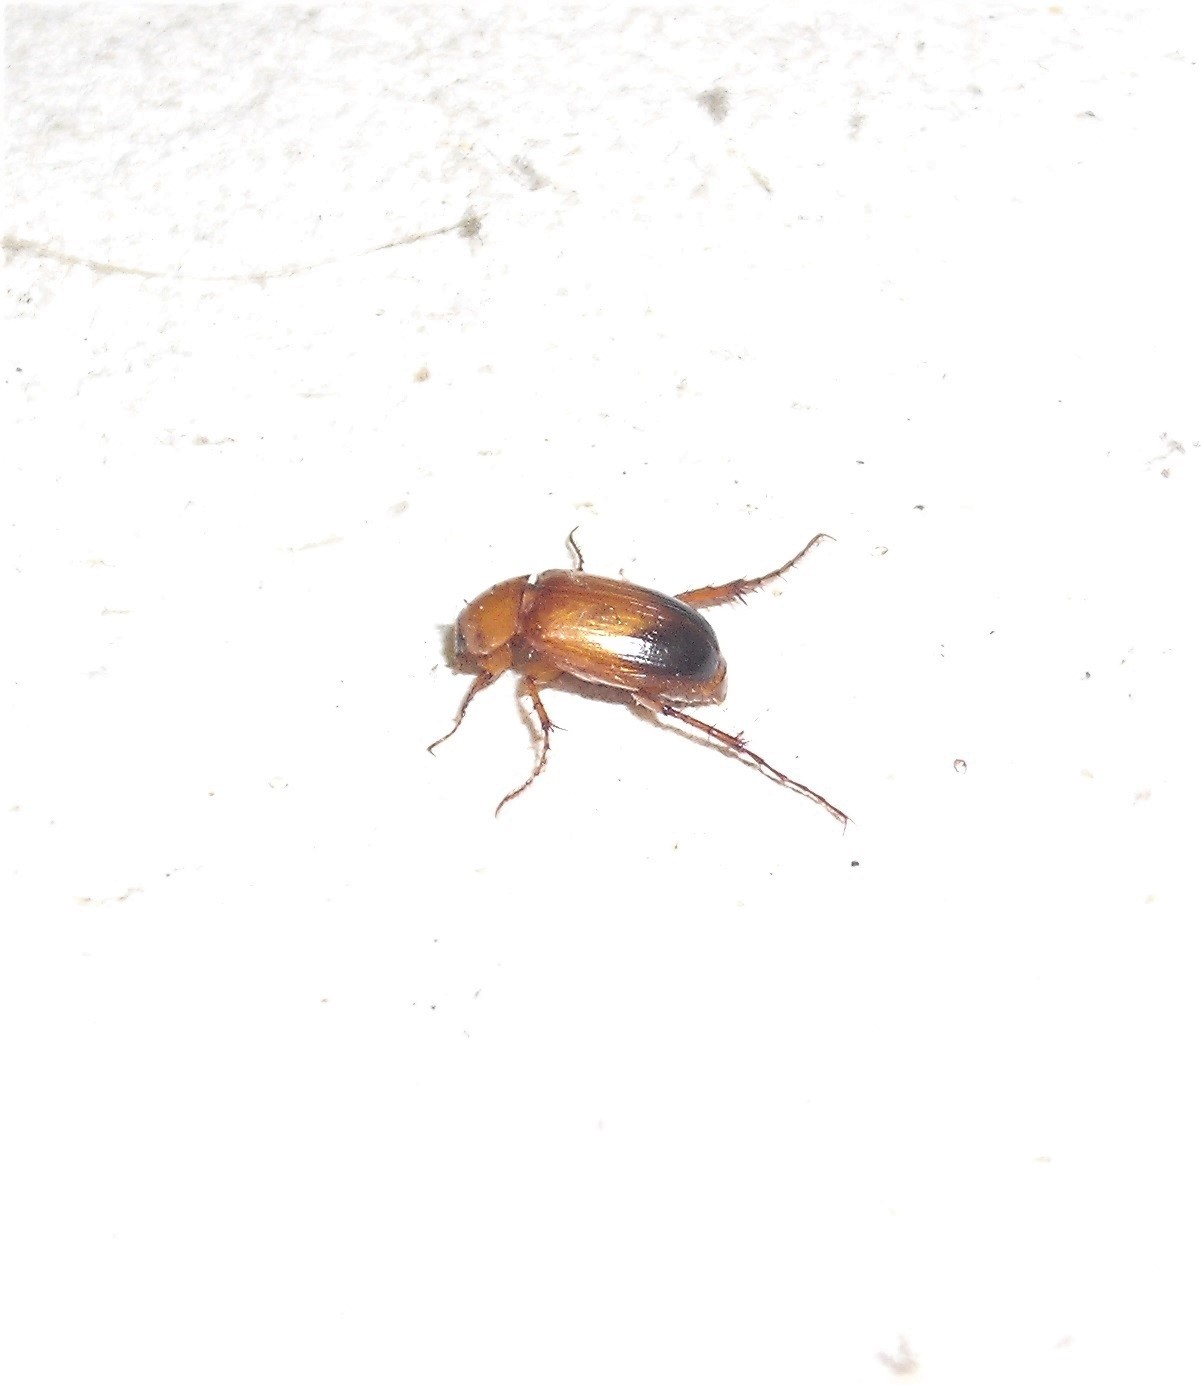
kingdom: Animalia
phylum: Arthropoda
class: Insecta
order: Coleoptera
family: Scarabaeidae
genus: Phyllotocus
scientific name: Phyllotocus macleayi
